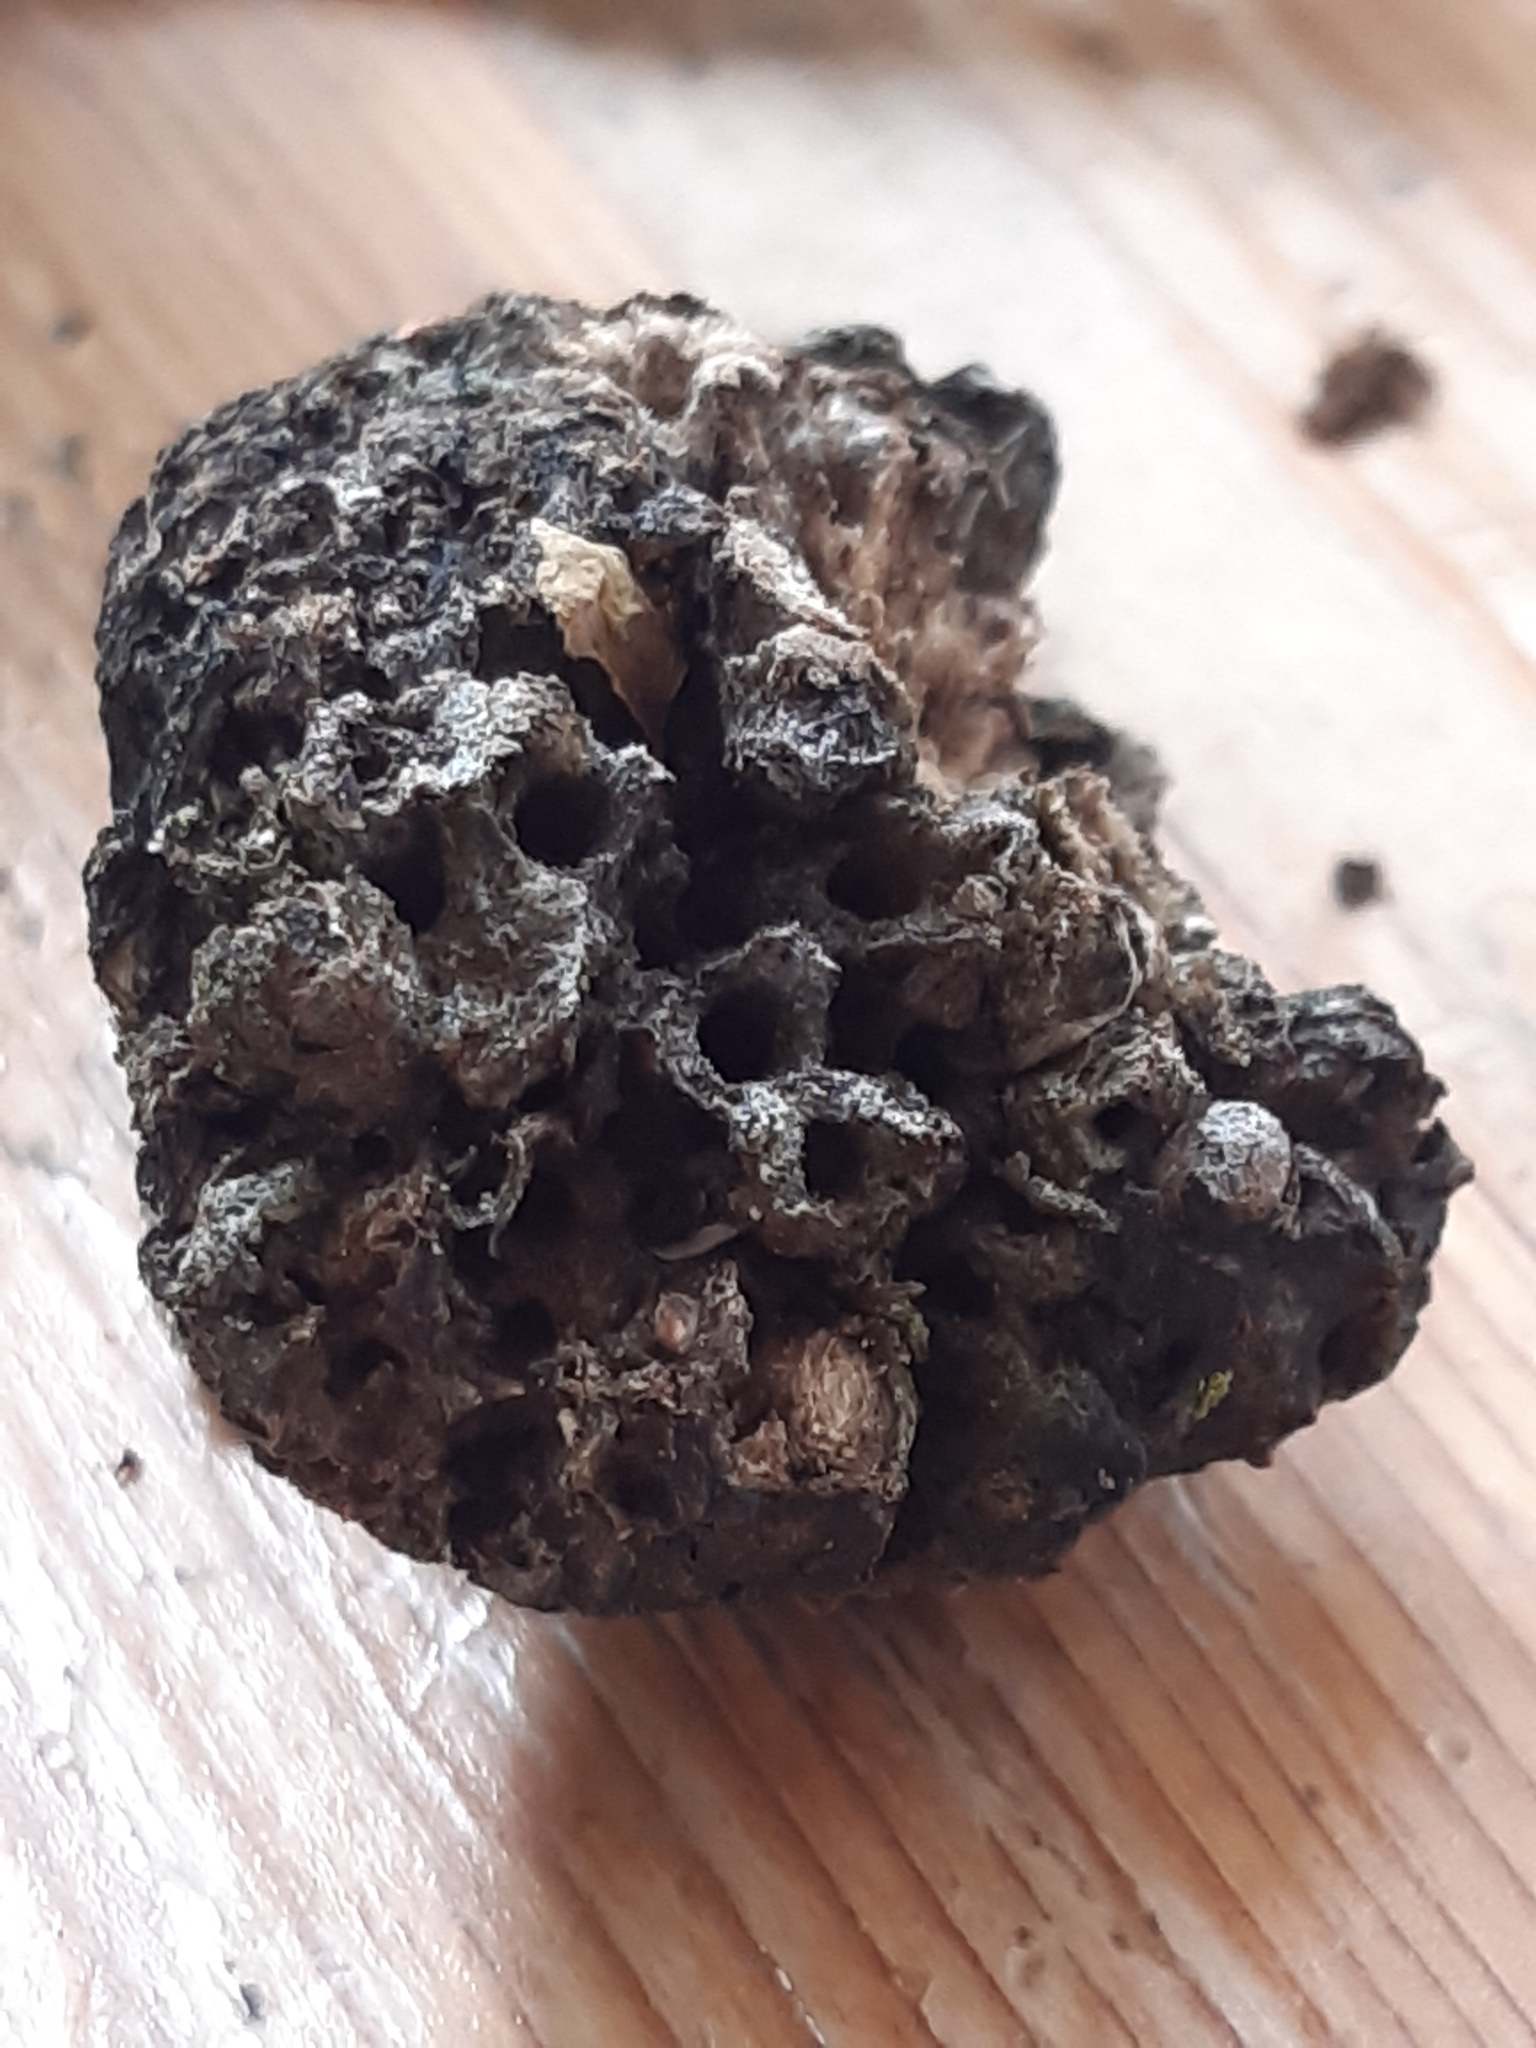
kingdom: Animalia
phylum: Arthropoda
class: Insecta
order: Hymenoptera
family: Cynipidae
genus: Biorhiza
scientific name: Biorhiza pallida
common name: Oak apple
